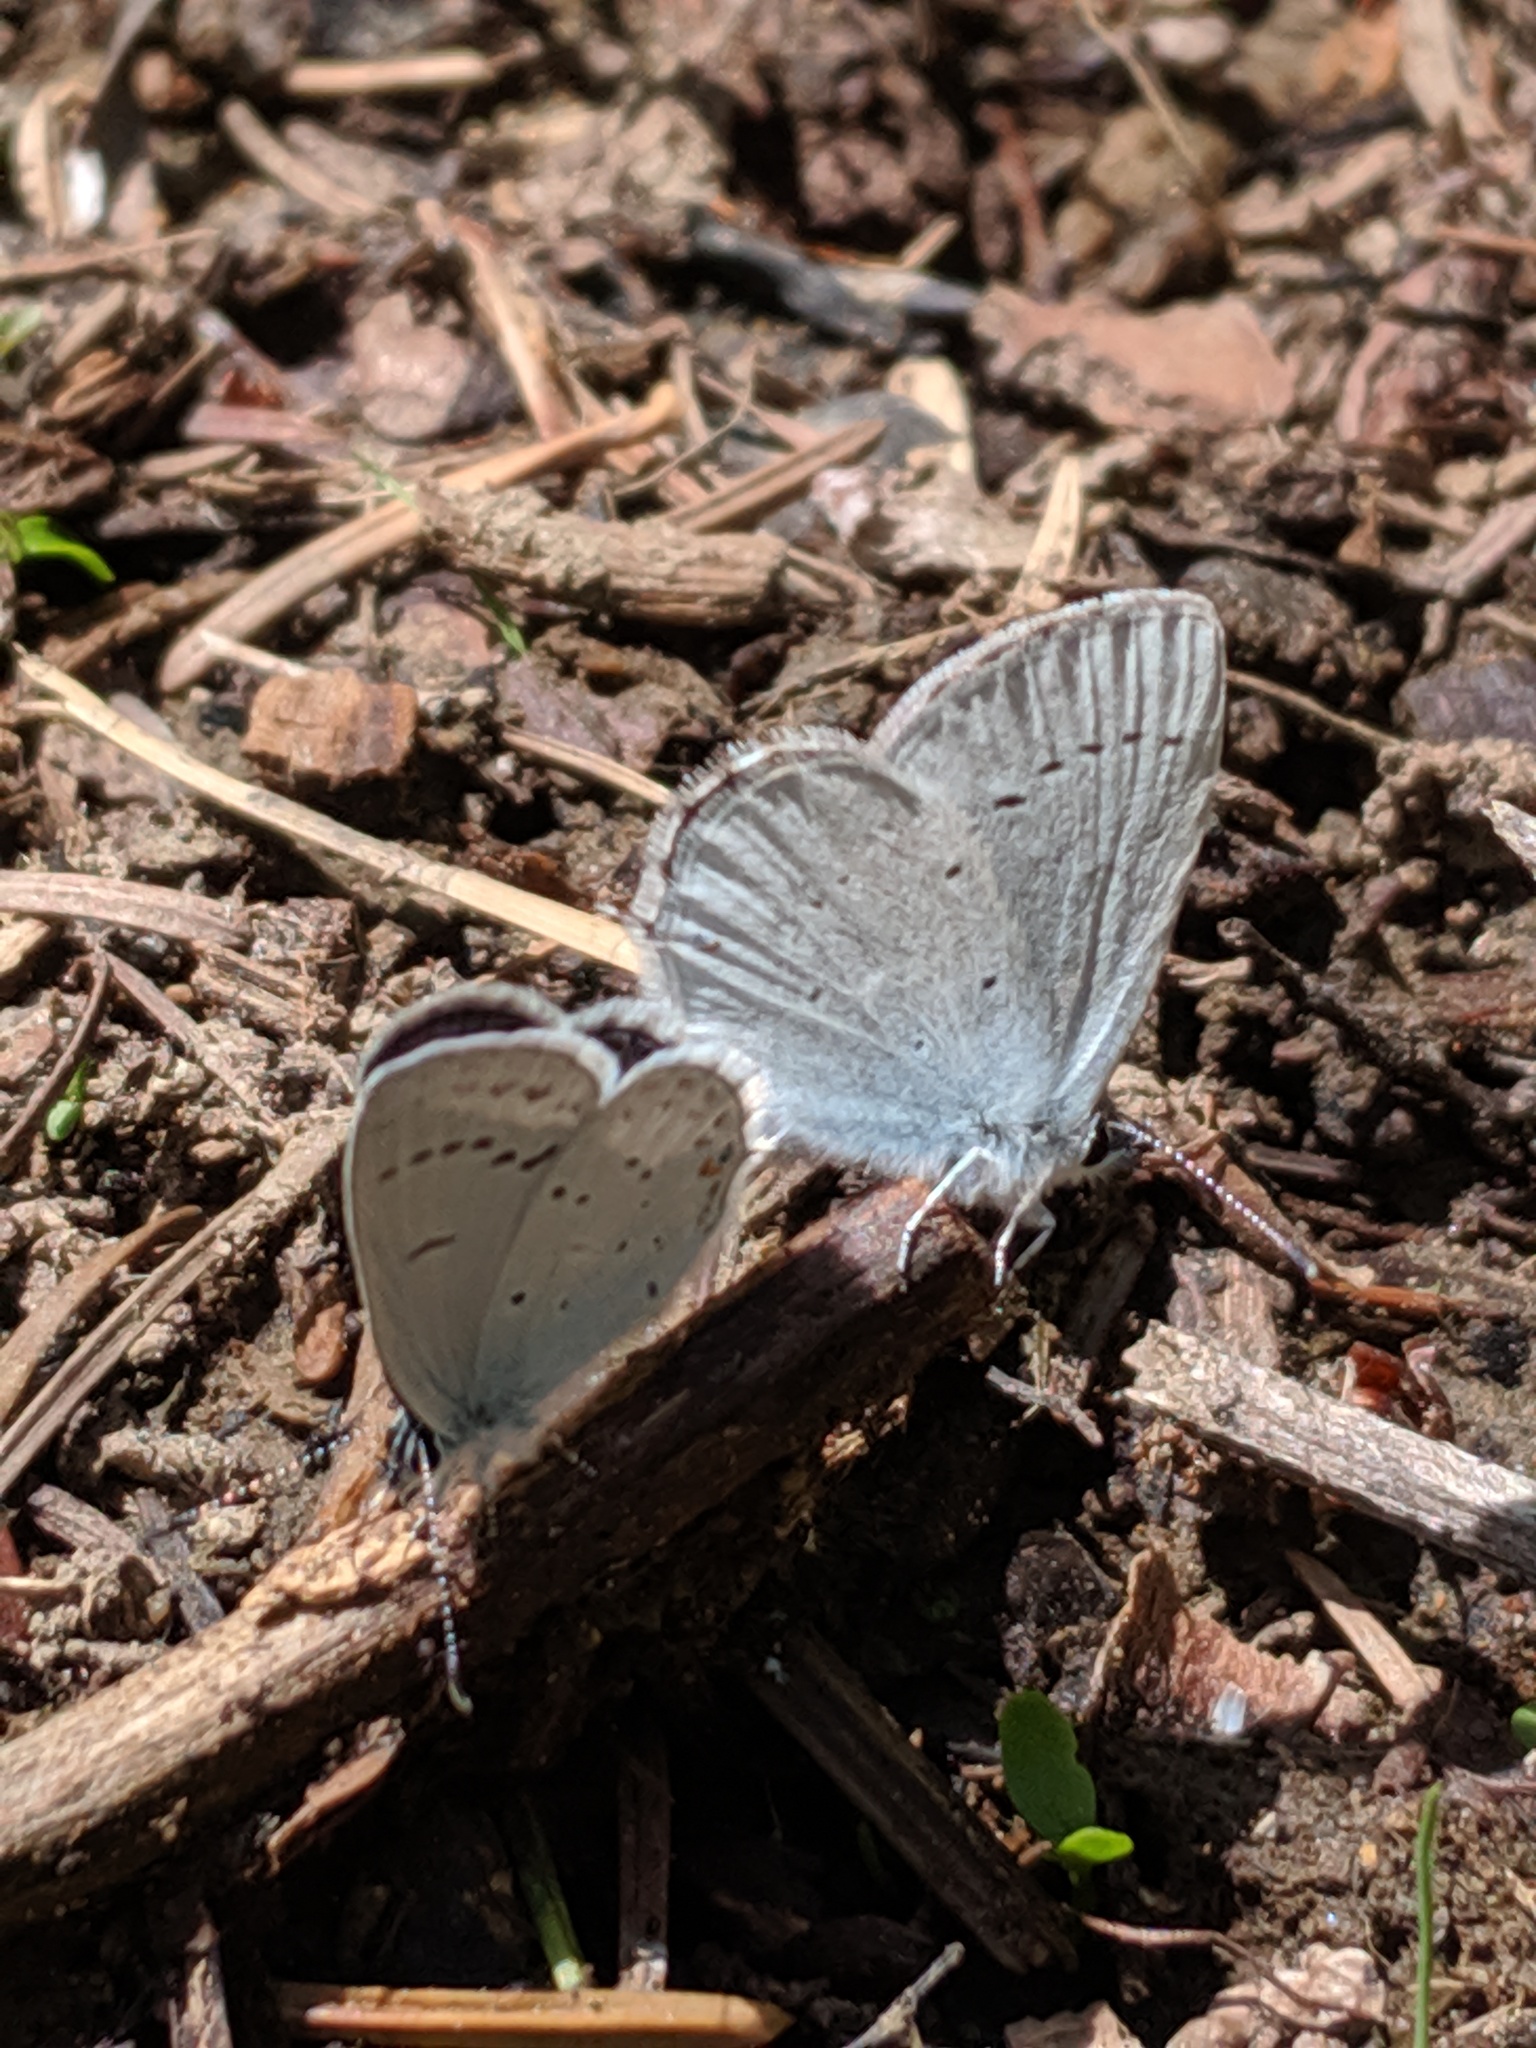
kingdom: Animalia
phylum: Arthropoda
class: Insecta
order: Lepidoptera
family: Lycaenidae
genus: Elkalyce
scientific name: Elkalyce amyntula
